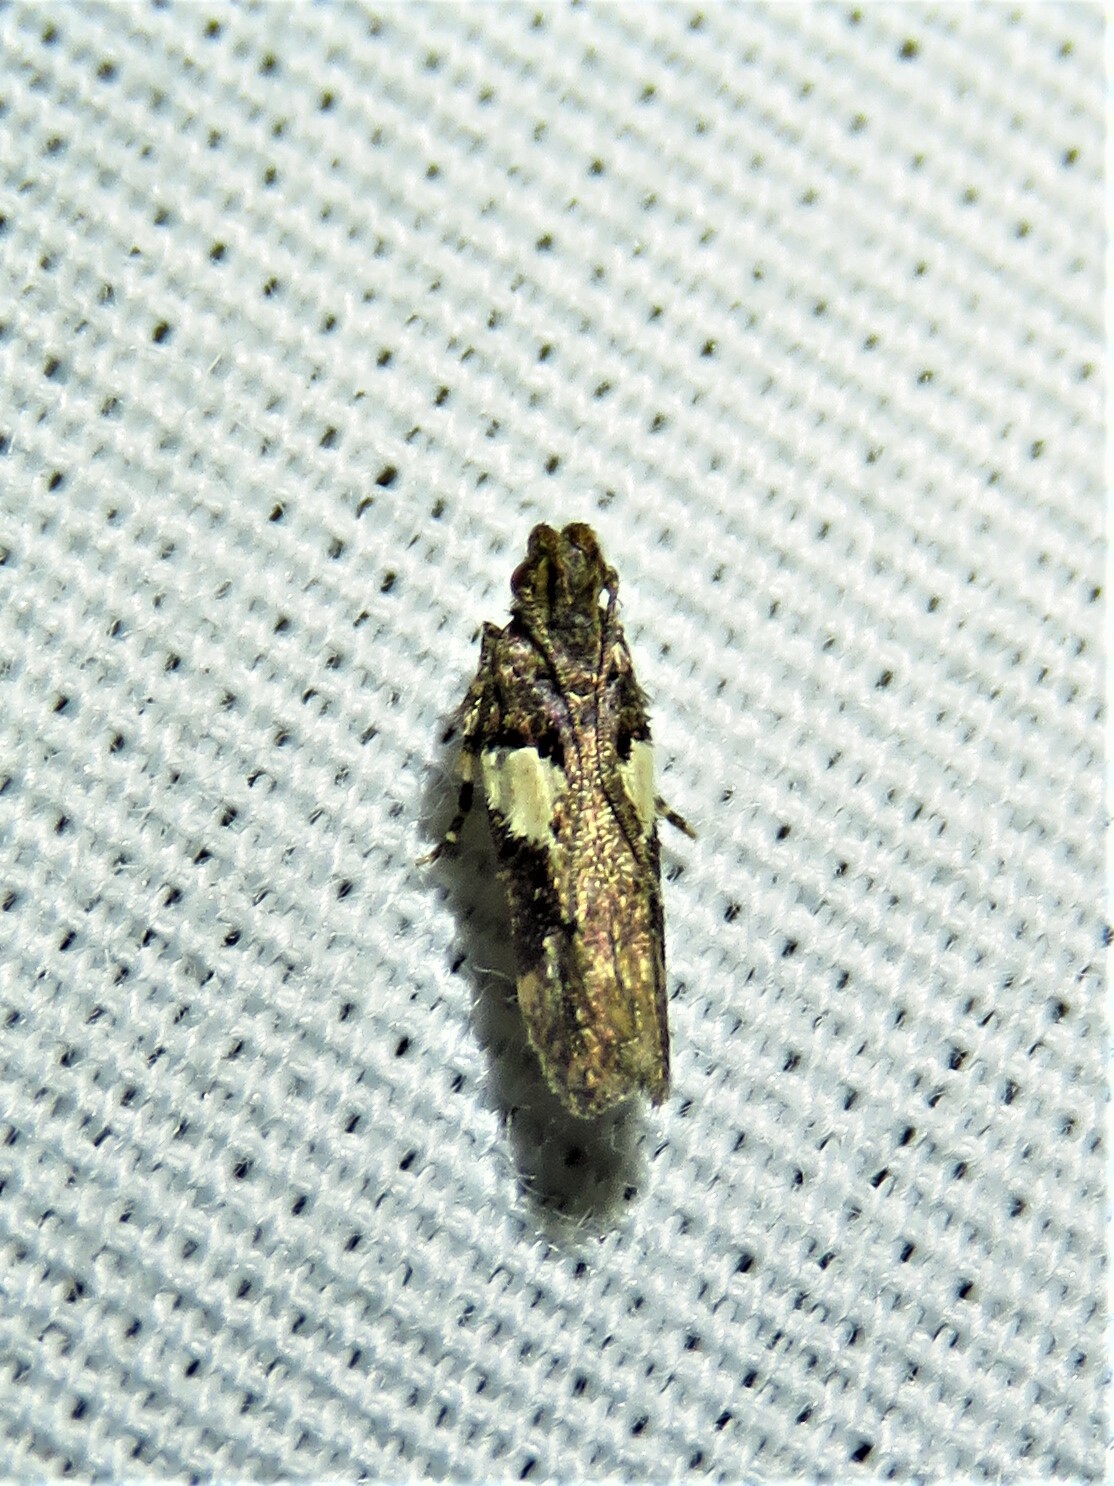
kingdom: Animalia
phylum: Arthropoda
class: Insecta
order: Lepidoptera
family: Gelechiidae
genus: Friseria
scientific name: Friseria acaciella
